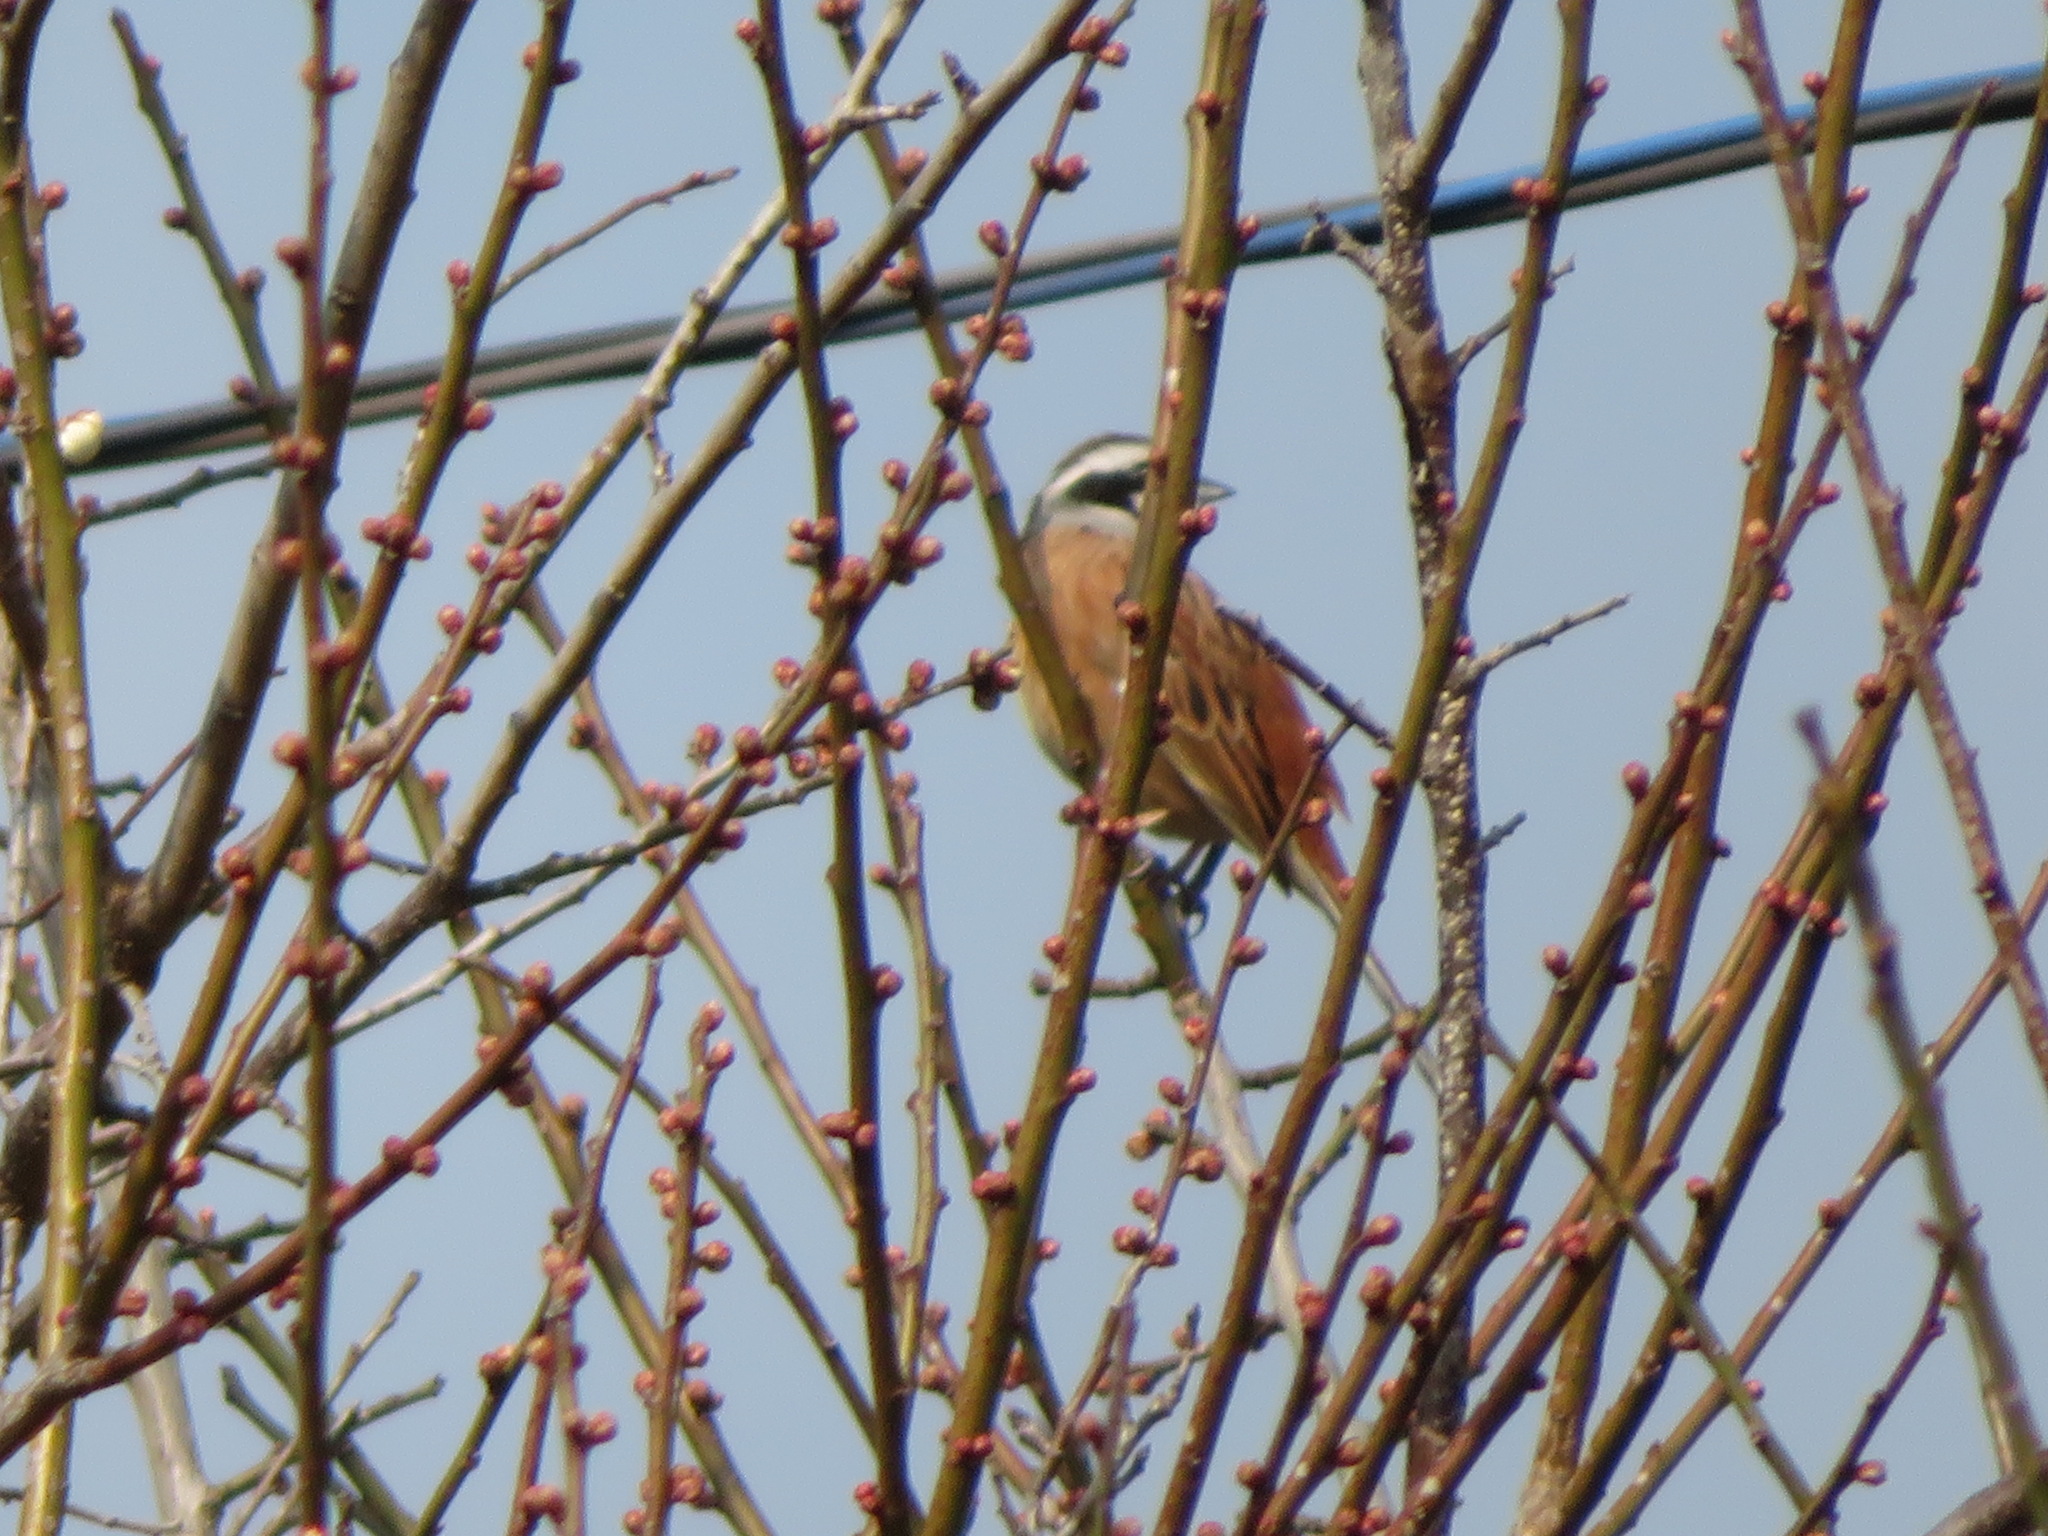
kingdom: Animalia
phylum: Chordata
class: Aves
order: Passeriformes
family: Emberizidae
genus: Emberiza
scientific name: Emberiza cioides
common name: Meadow bunting
